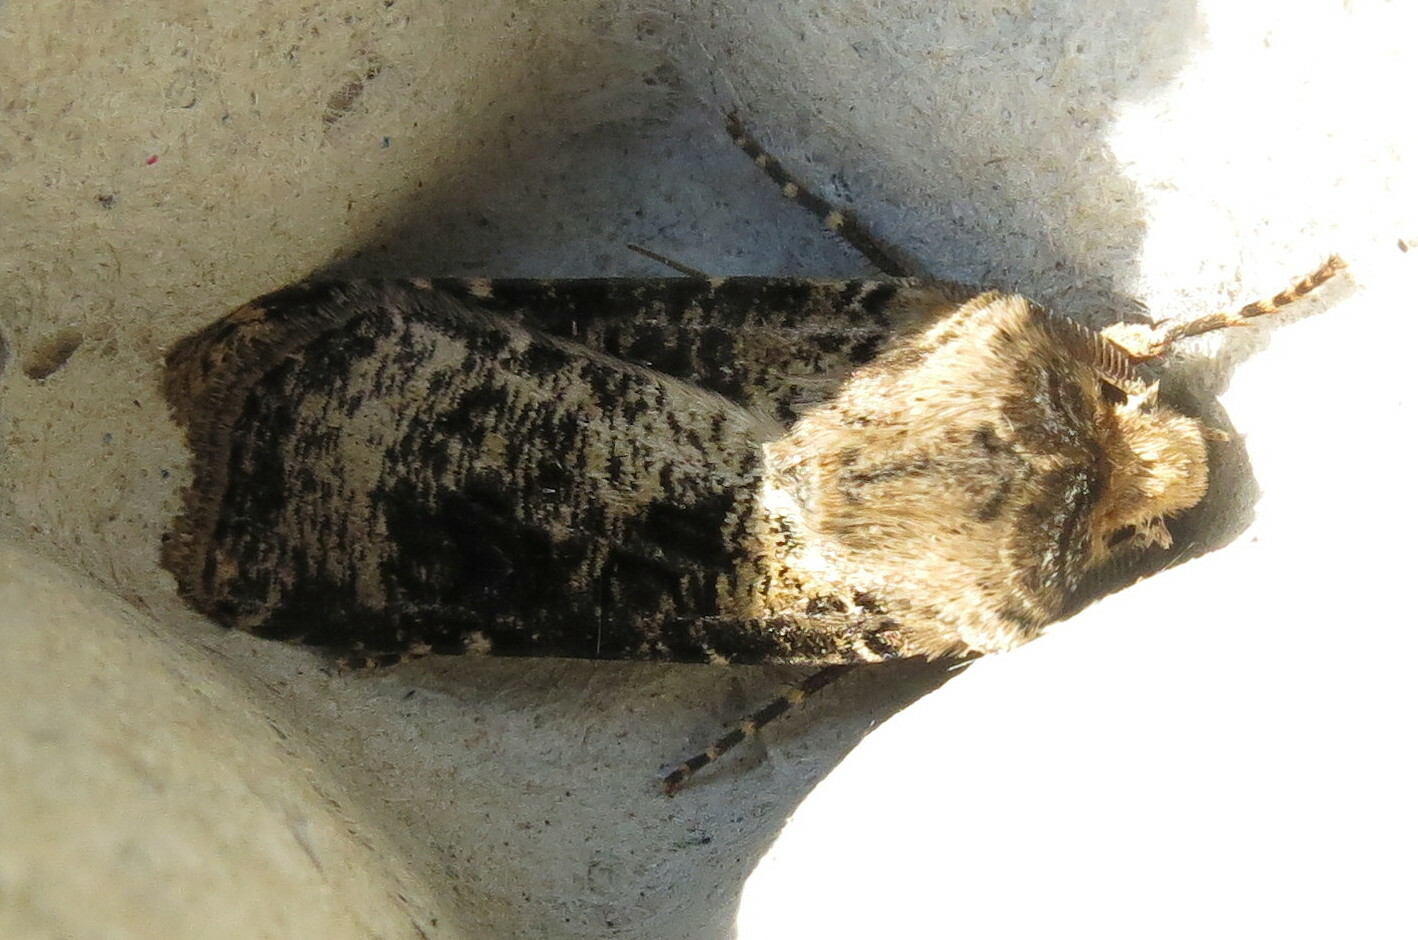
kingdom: Animalia
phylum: Arthropoda
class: Insecta
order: Lepidoptera
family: Noctuidae
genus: Agrotis
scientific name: Agrotis clavis
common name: Heart and club
